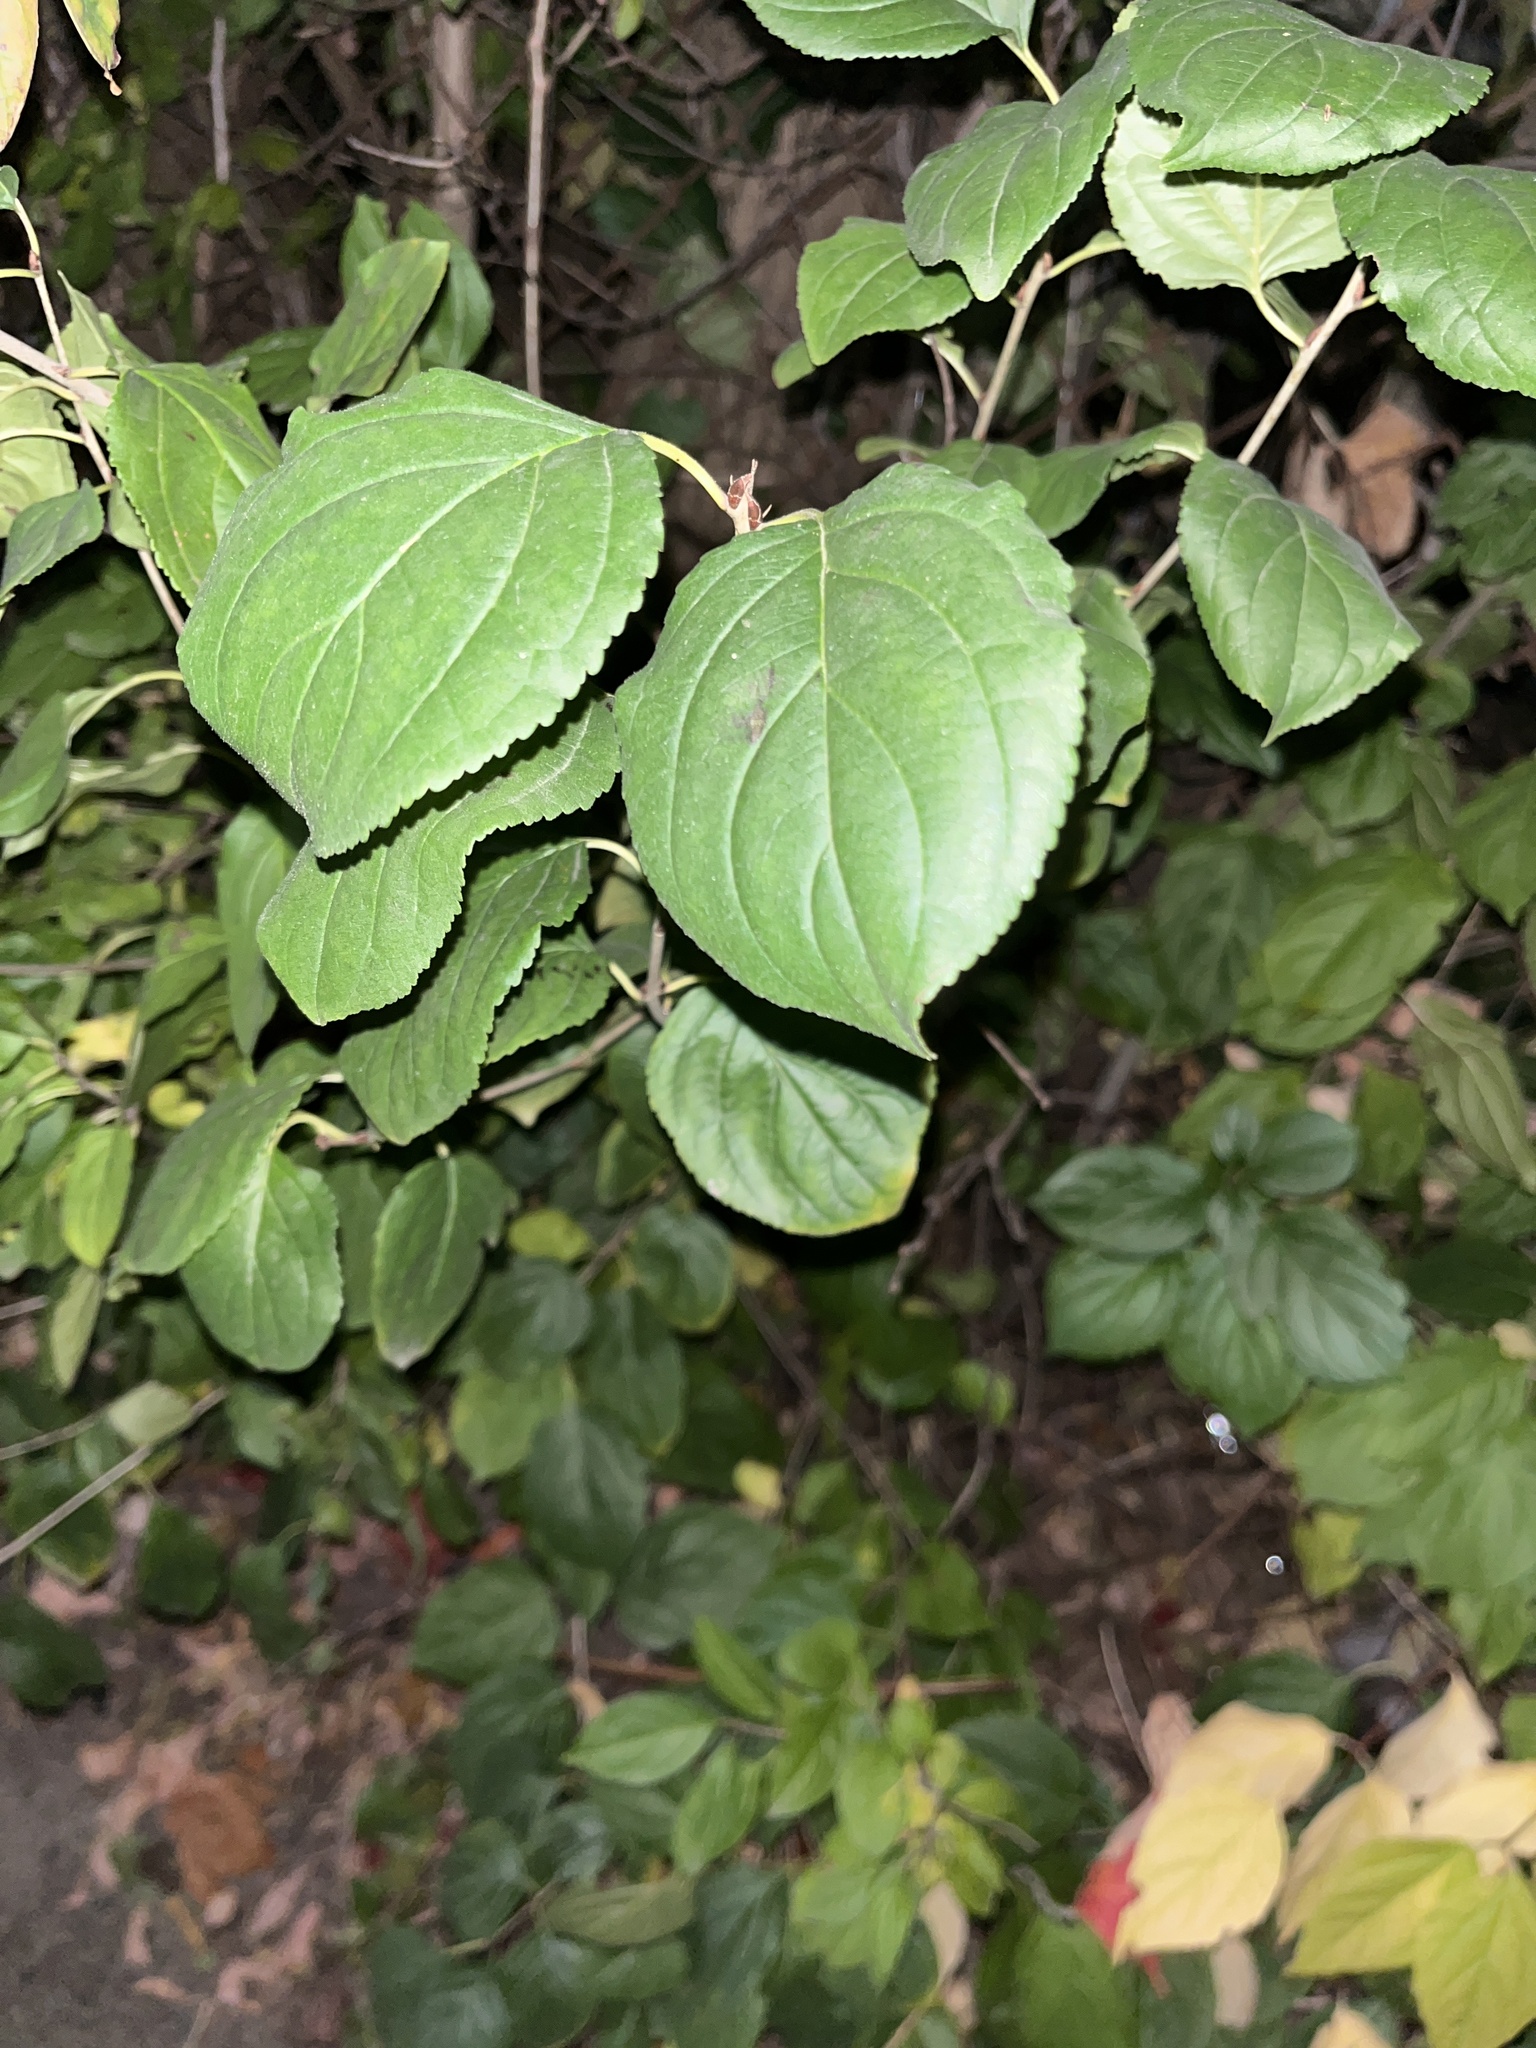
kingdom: Plantae
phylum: Tracheophyta
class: Magnoliopsida
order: Rosales
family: Rhamnaceae
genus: Rhamnus
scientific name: Rhamnus cathartica
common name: Common buckthorn
